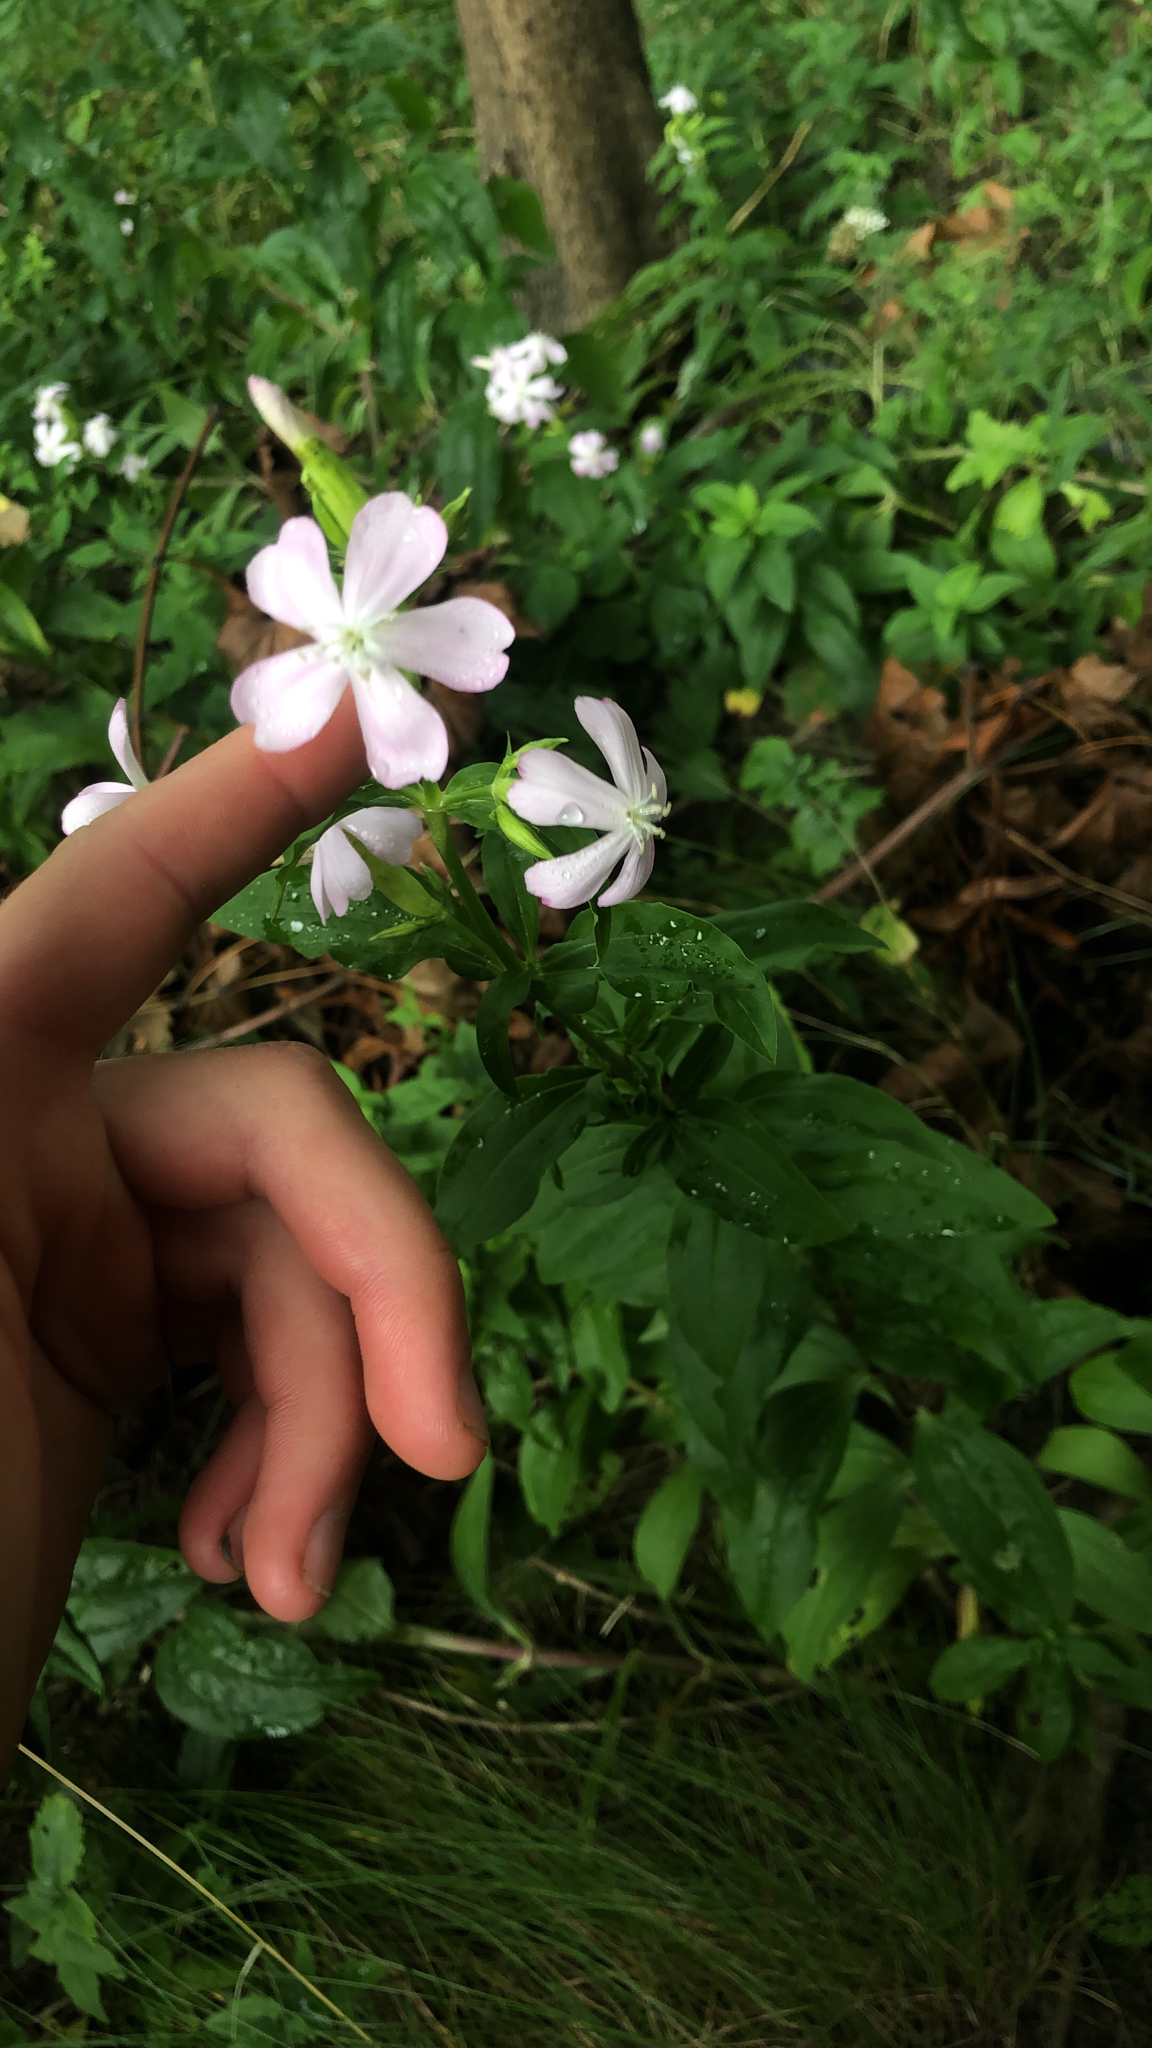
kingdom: Plantae
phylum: Tracheophyta
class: Magnoliopsida
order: Caryophyllales
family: Caryophyllaceae
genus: Saponaria
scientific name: Saponaria officinalis
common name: Soapwort
